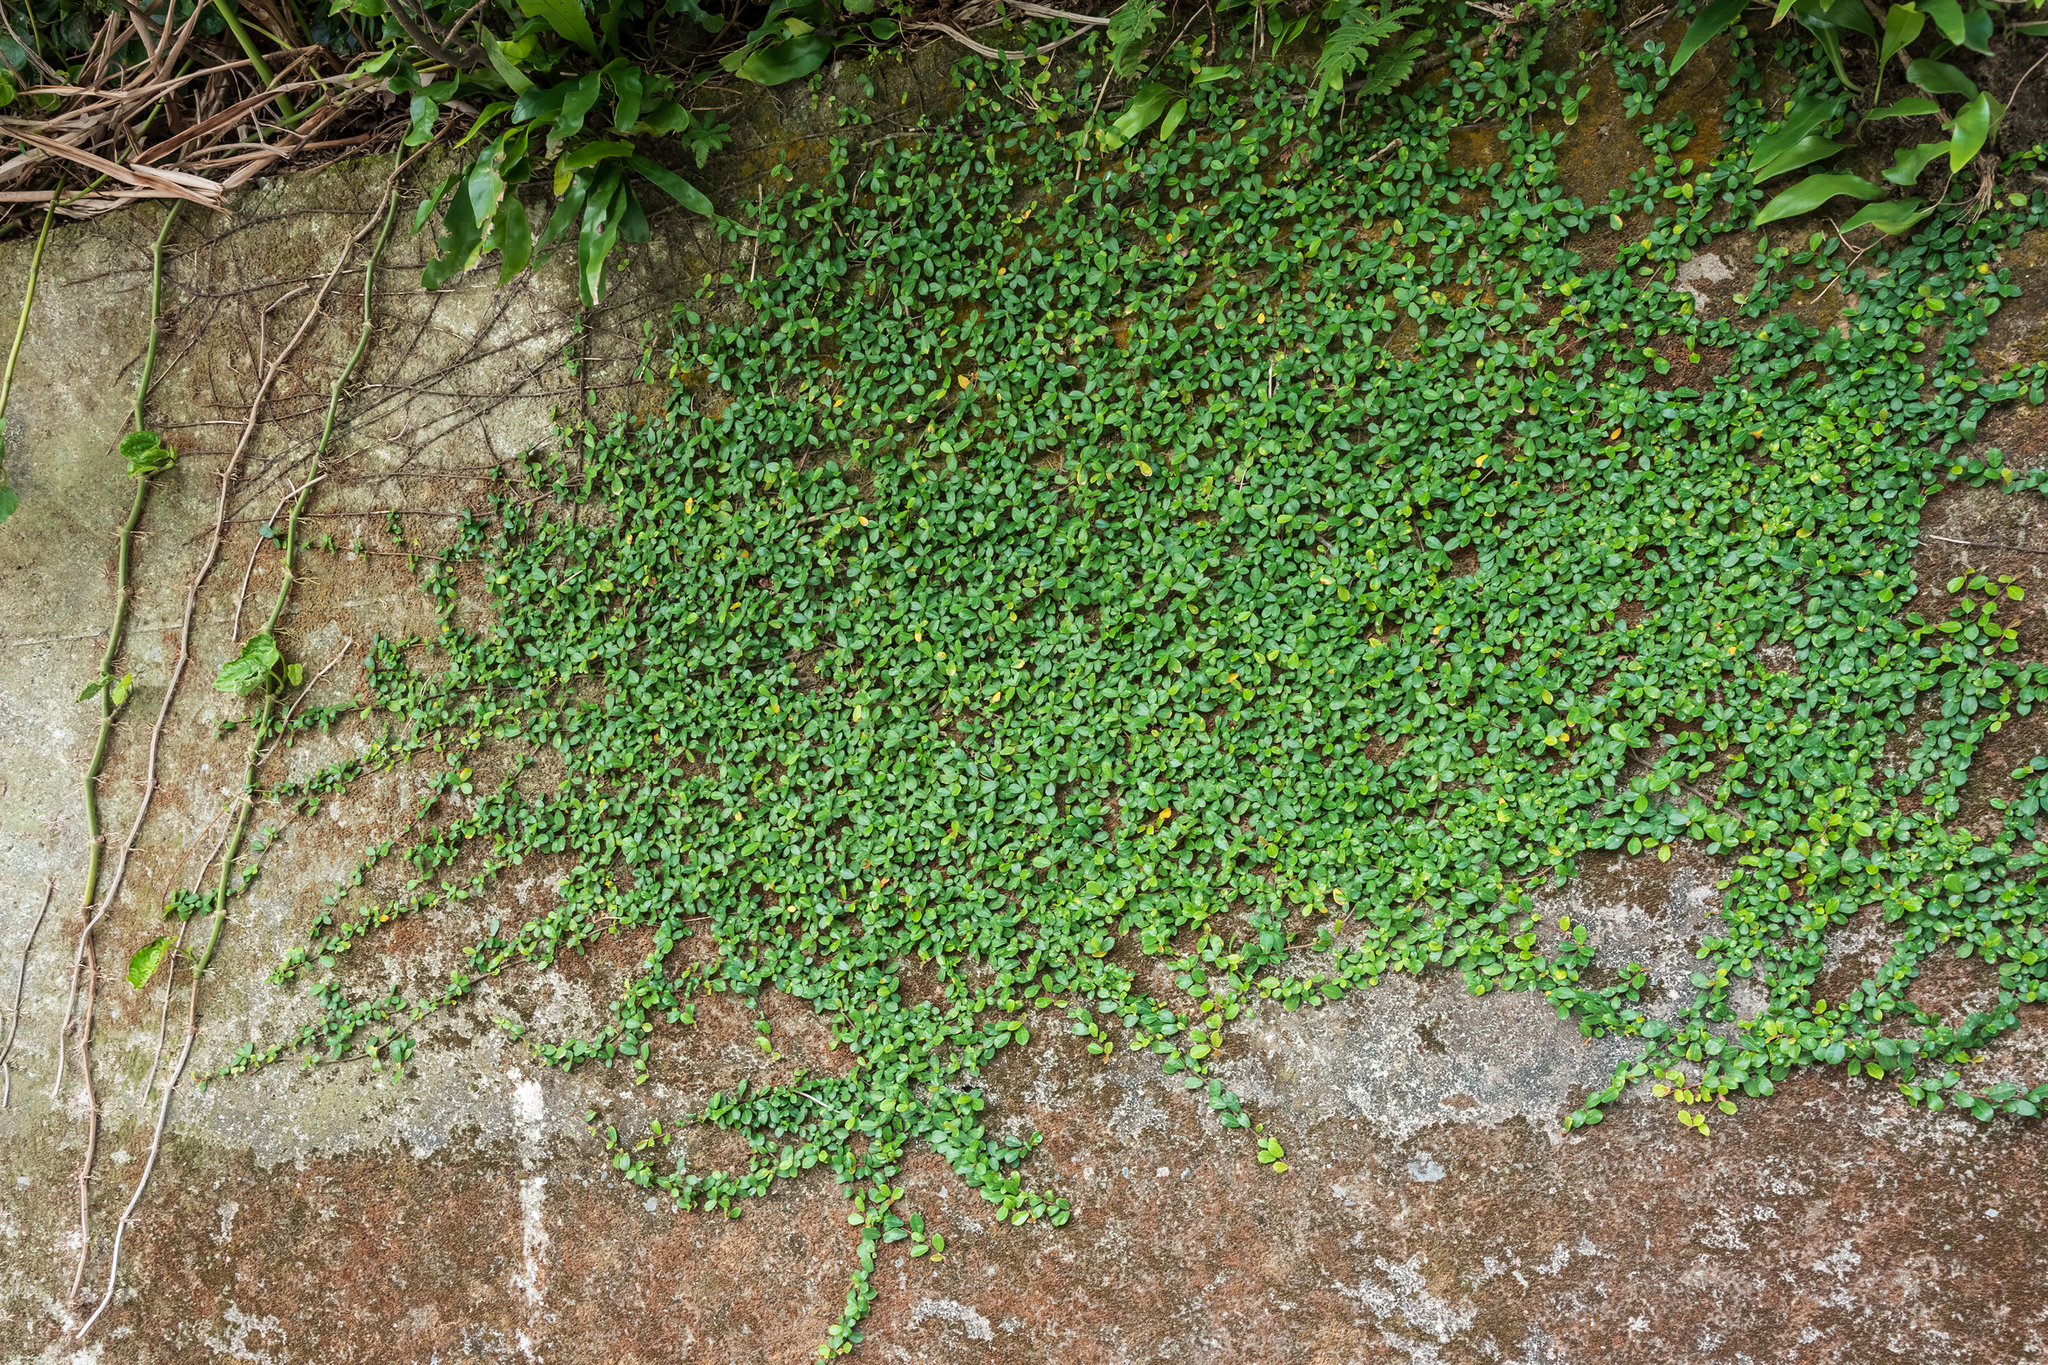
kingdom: Plantae
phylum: Tracheophyta
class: Magnoliopsida
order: Rosales
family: Moraceae
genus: Ficus
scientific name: Ficus vaccinioides
